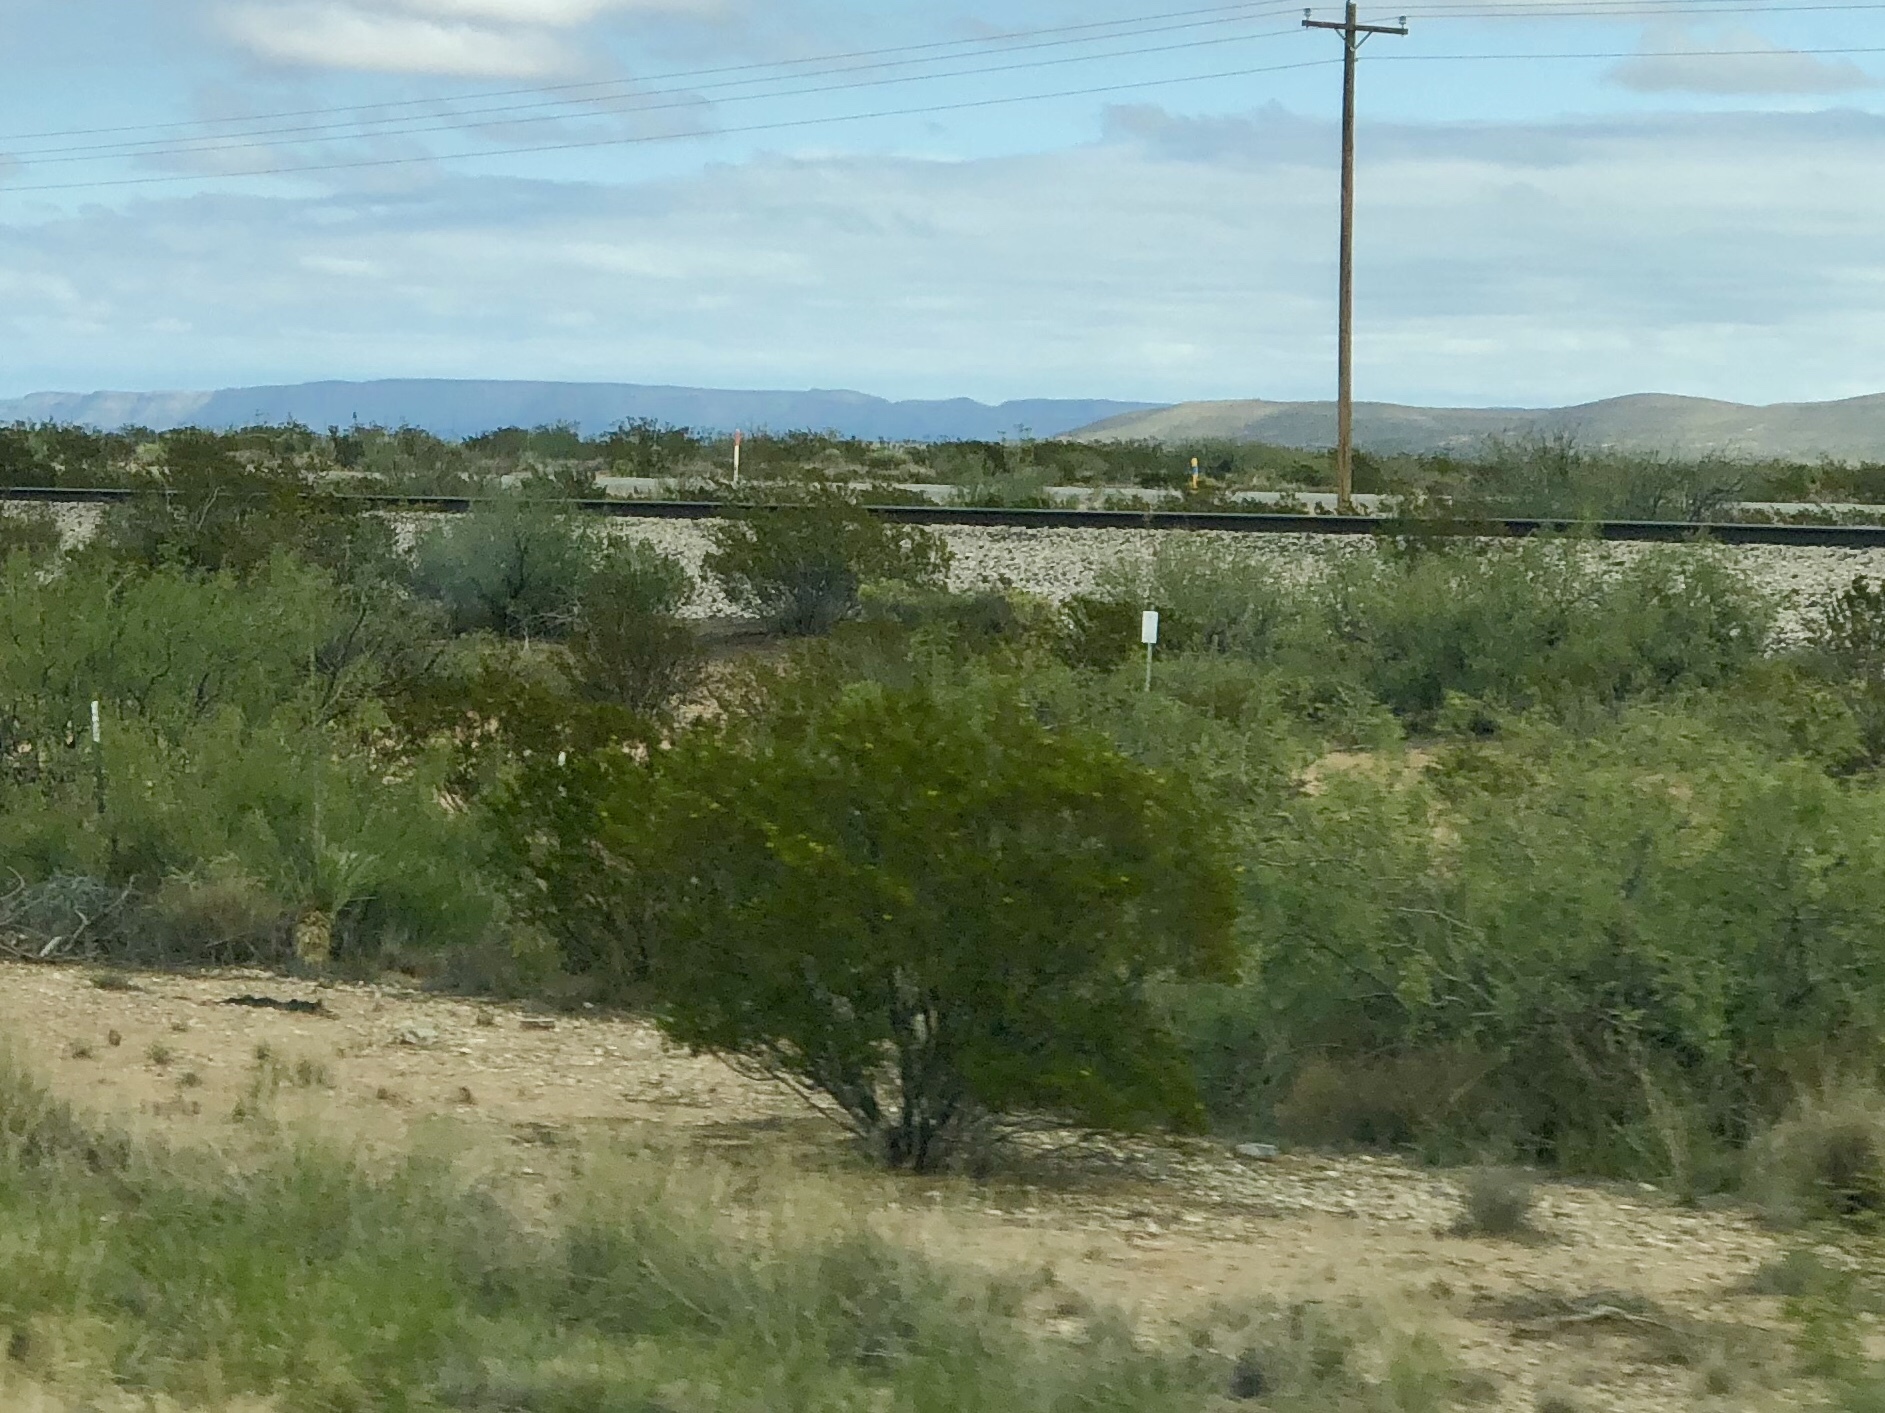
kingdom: Plantae
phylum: Tracheophyta
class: Magnoliopsida
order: Zygophyllales
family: Zygophyllaceae
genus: Larrea
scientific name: Larrea tridentata
